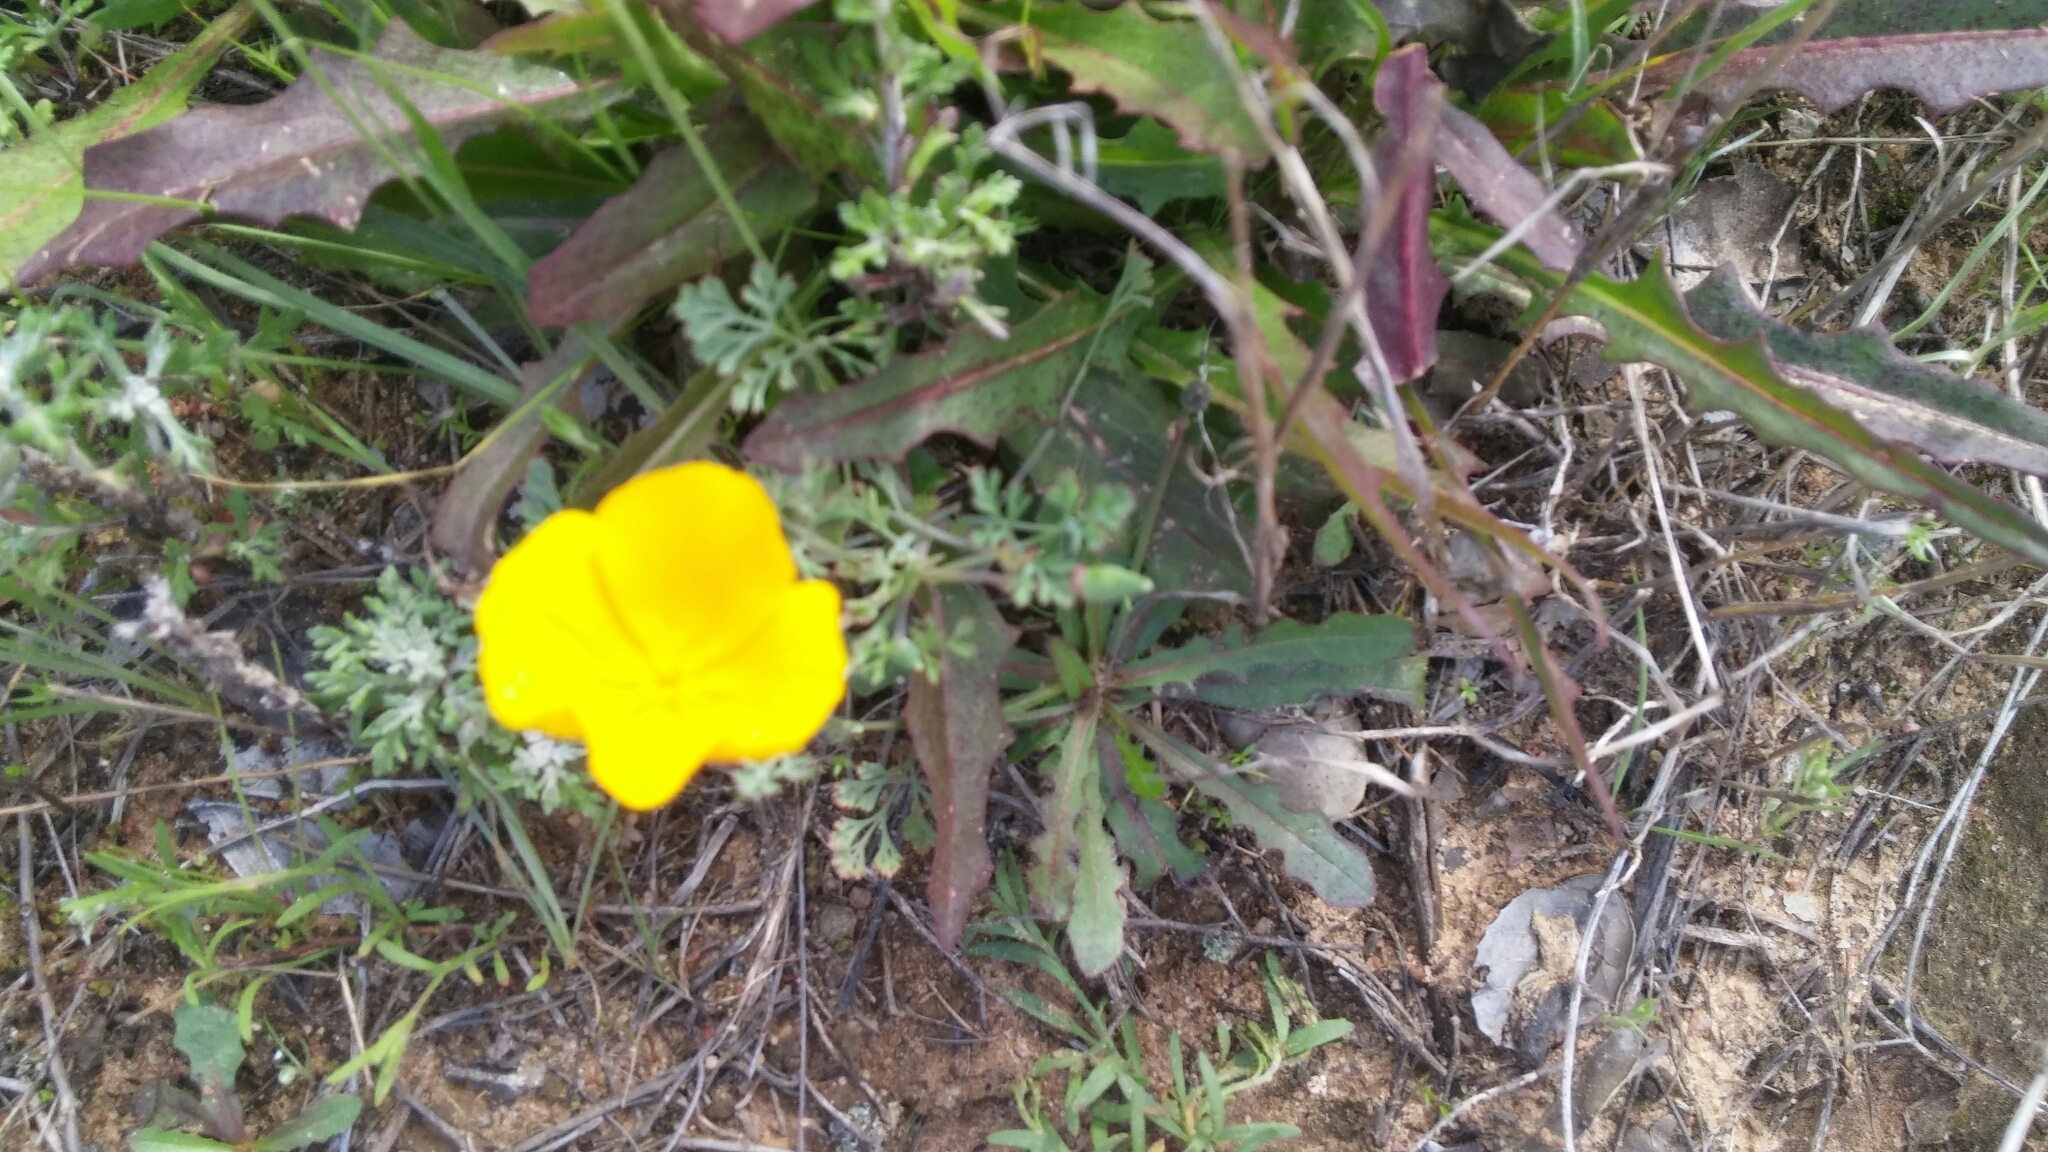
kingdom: Plantae
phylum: Tracheophyta
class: Magnoliopsida
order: Ranunculales
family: Papaveraceae
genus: Eschscholzia
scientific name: Eschscholzia californica
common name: California poppy
